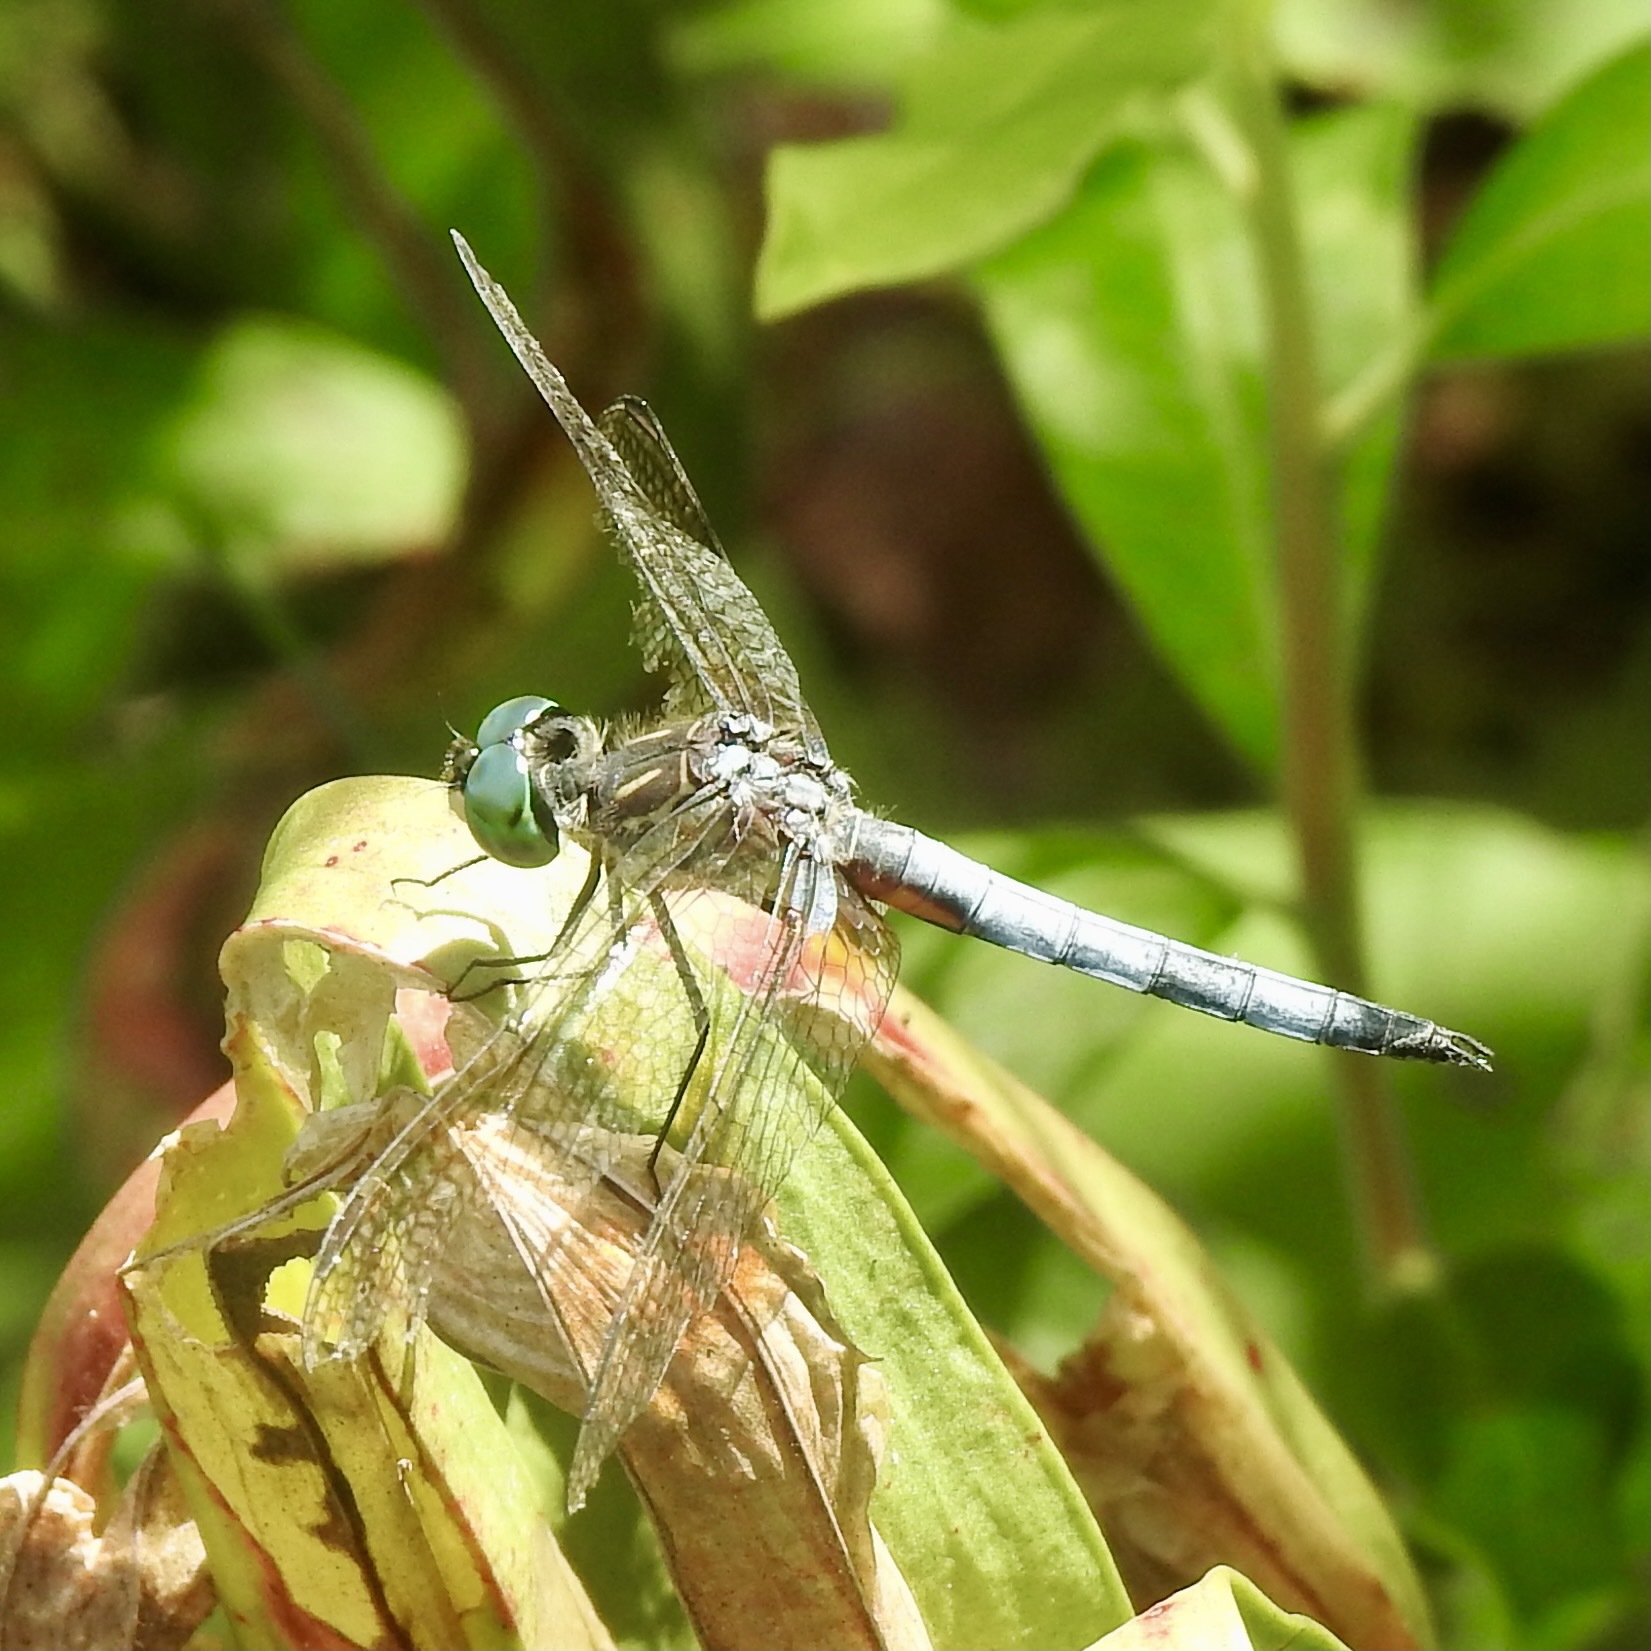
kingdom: Animalia
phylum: Arthropoda
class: Insecta
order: Odonata
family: Libellulidae
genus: Pachydiplax
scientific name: Pachydiplax longipennis
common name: Blue dasher
